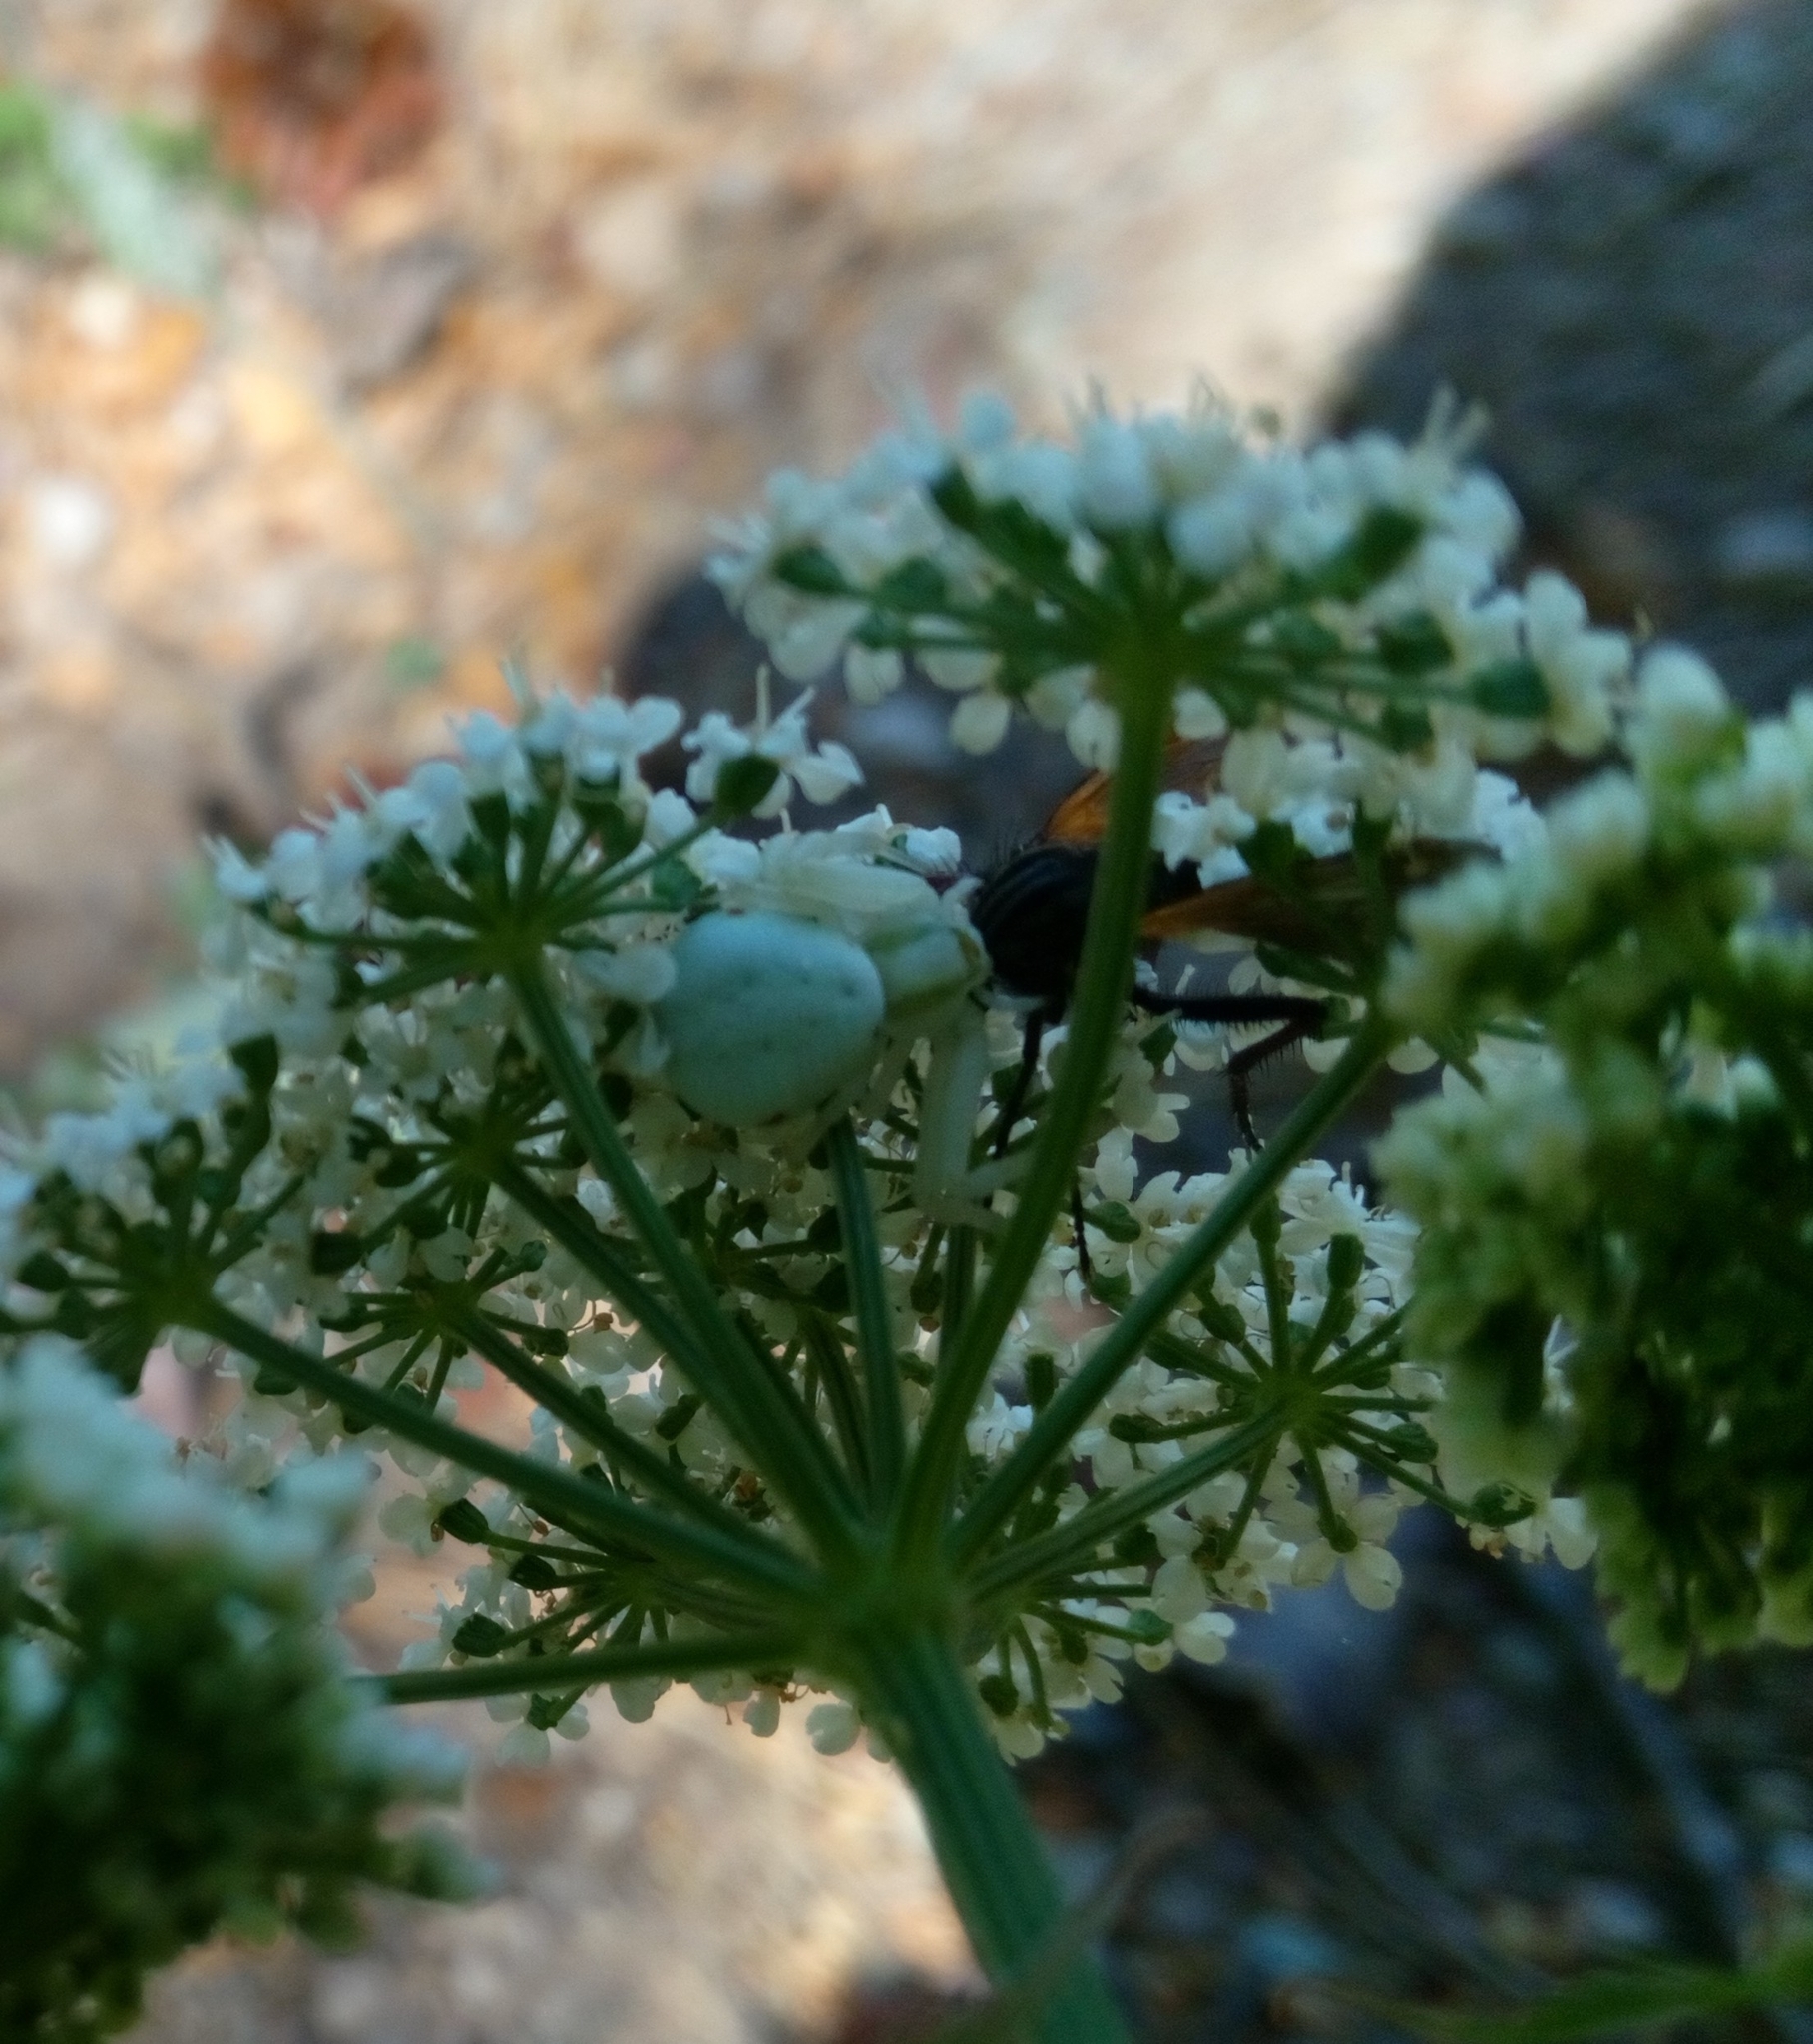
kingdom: Animalia
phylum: Arthropoda
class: Arachnida
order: Araneae
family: Thomisidae
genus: Misumena
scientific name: Misumena vatia
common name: Goldenrod crab spider
